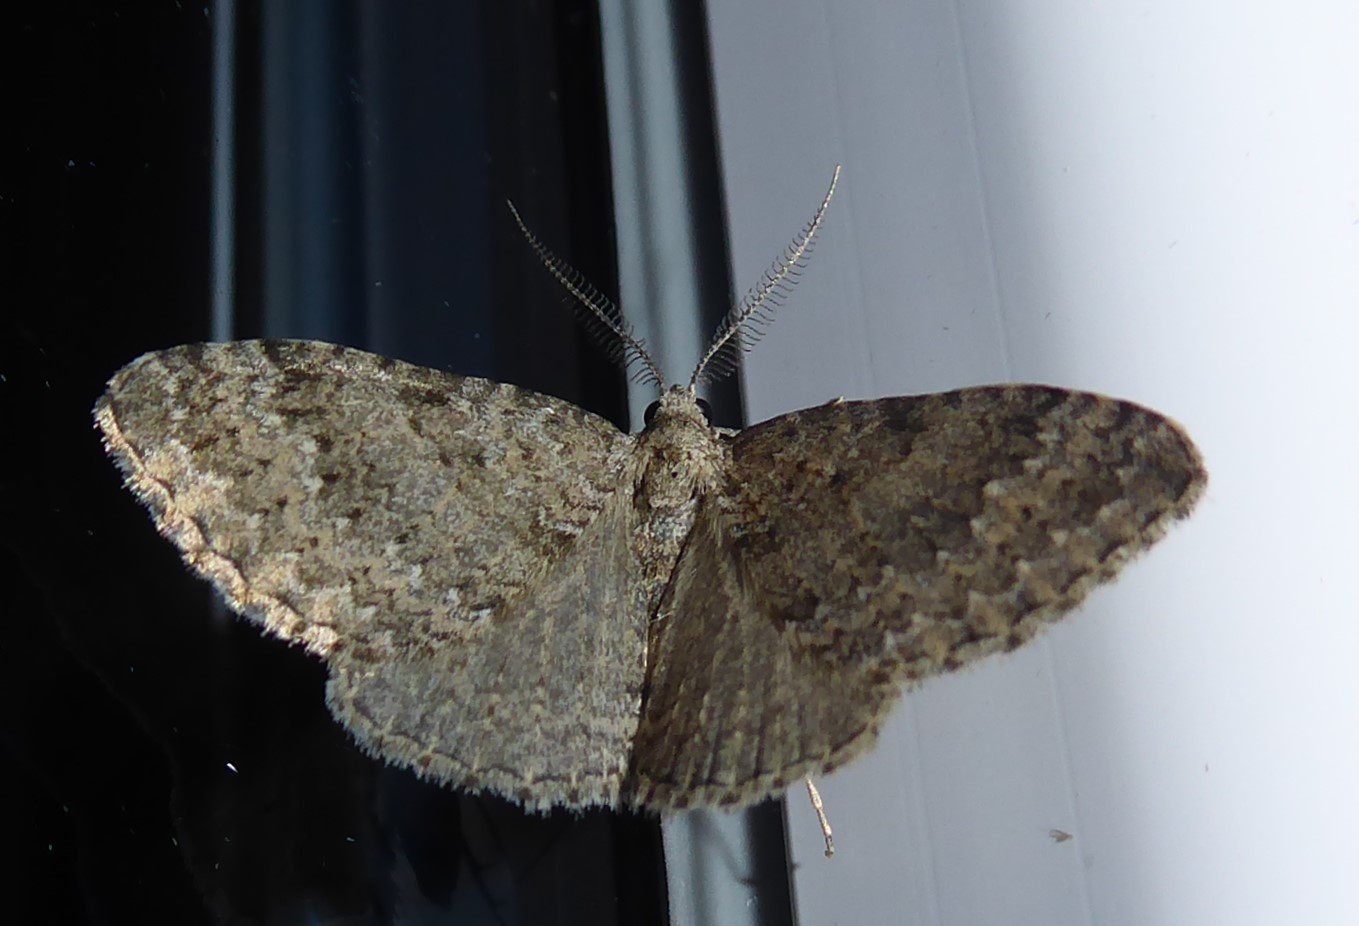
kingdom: Animalia
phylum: Arthropoda
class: Insecta
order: Lepidoptera
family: Geometridae
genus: Helastia
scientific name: Helastia corcularia
